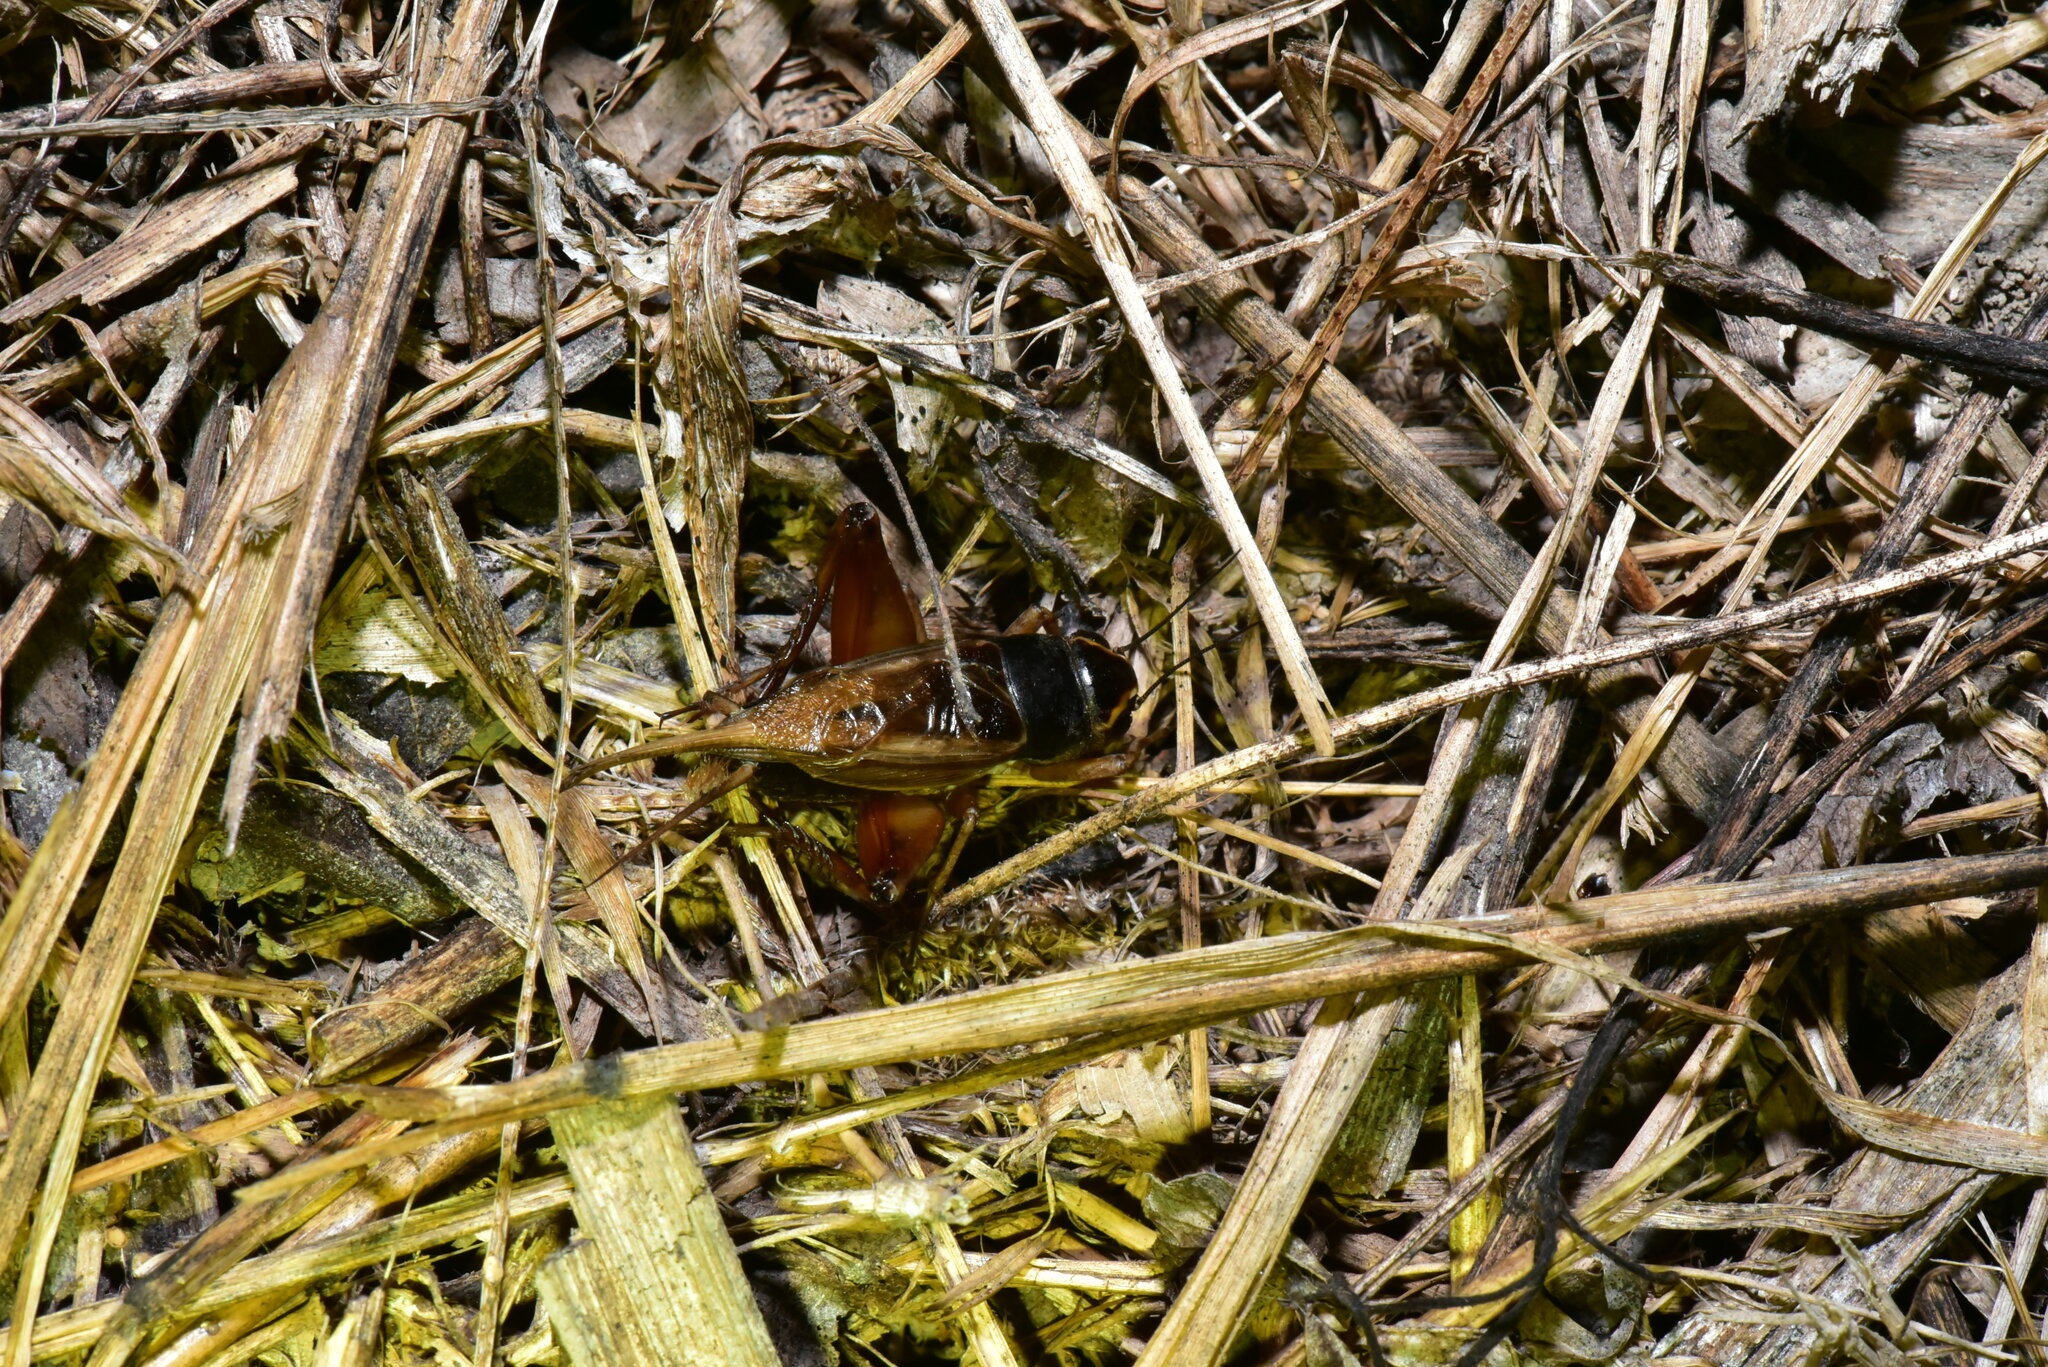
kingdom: Animalia
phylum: Arthropoda
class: Insecta
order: Orthoptera
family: Gryllidae
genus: Teleogryllus
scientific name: Teleogryllus occipitalis
